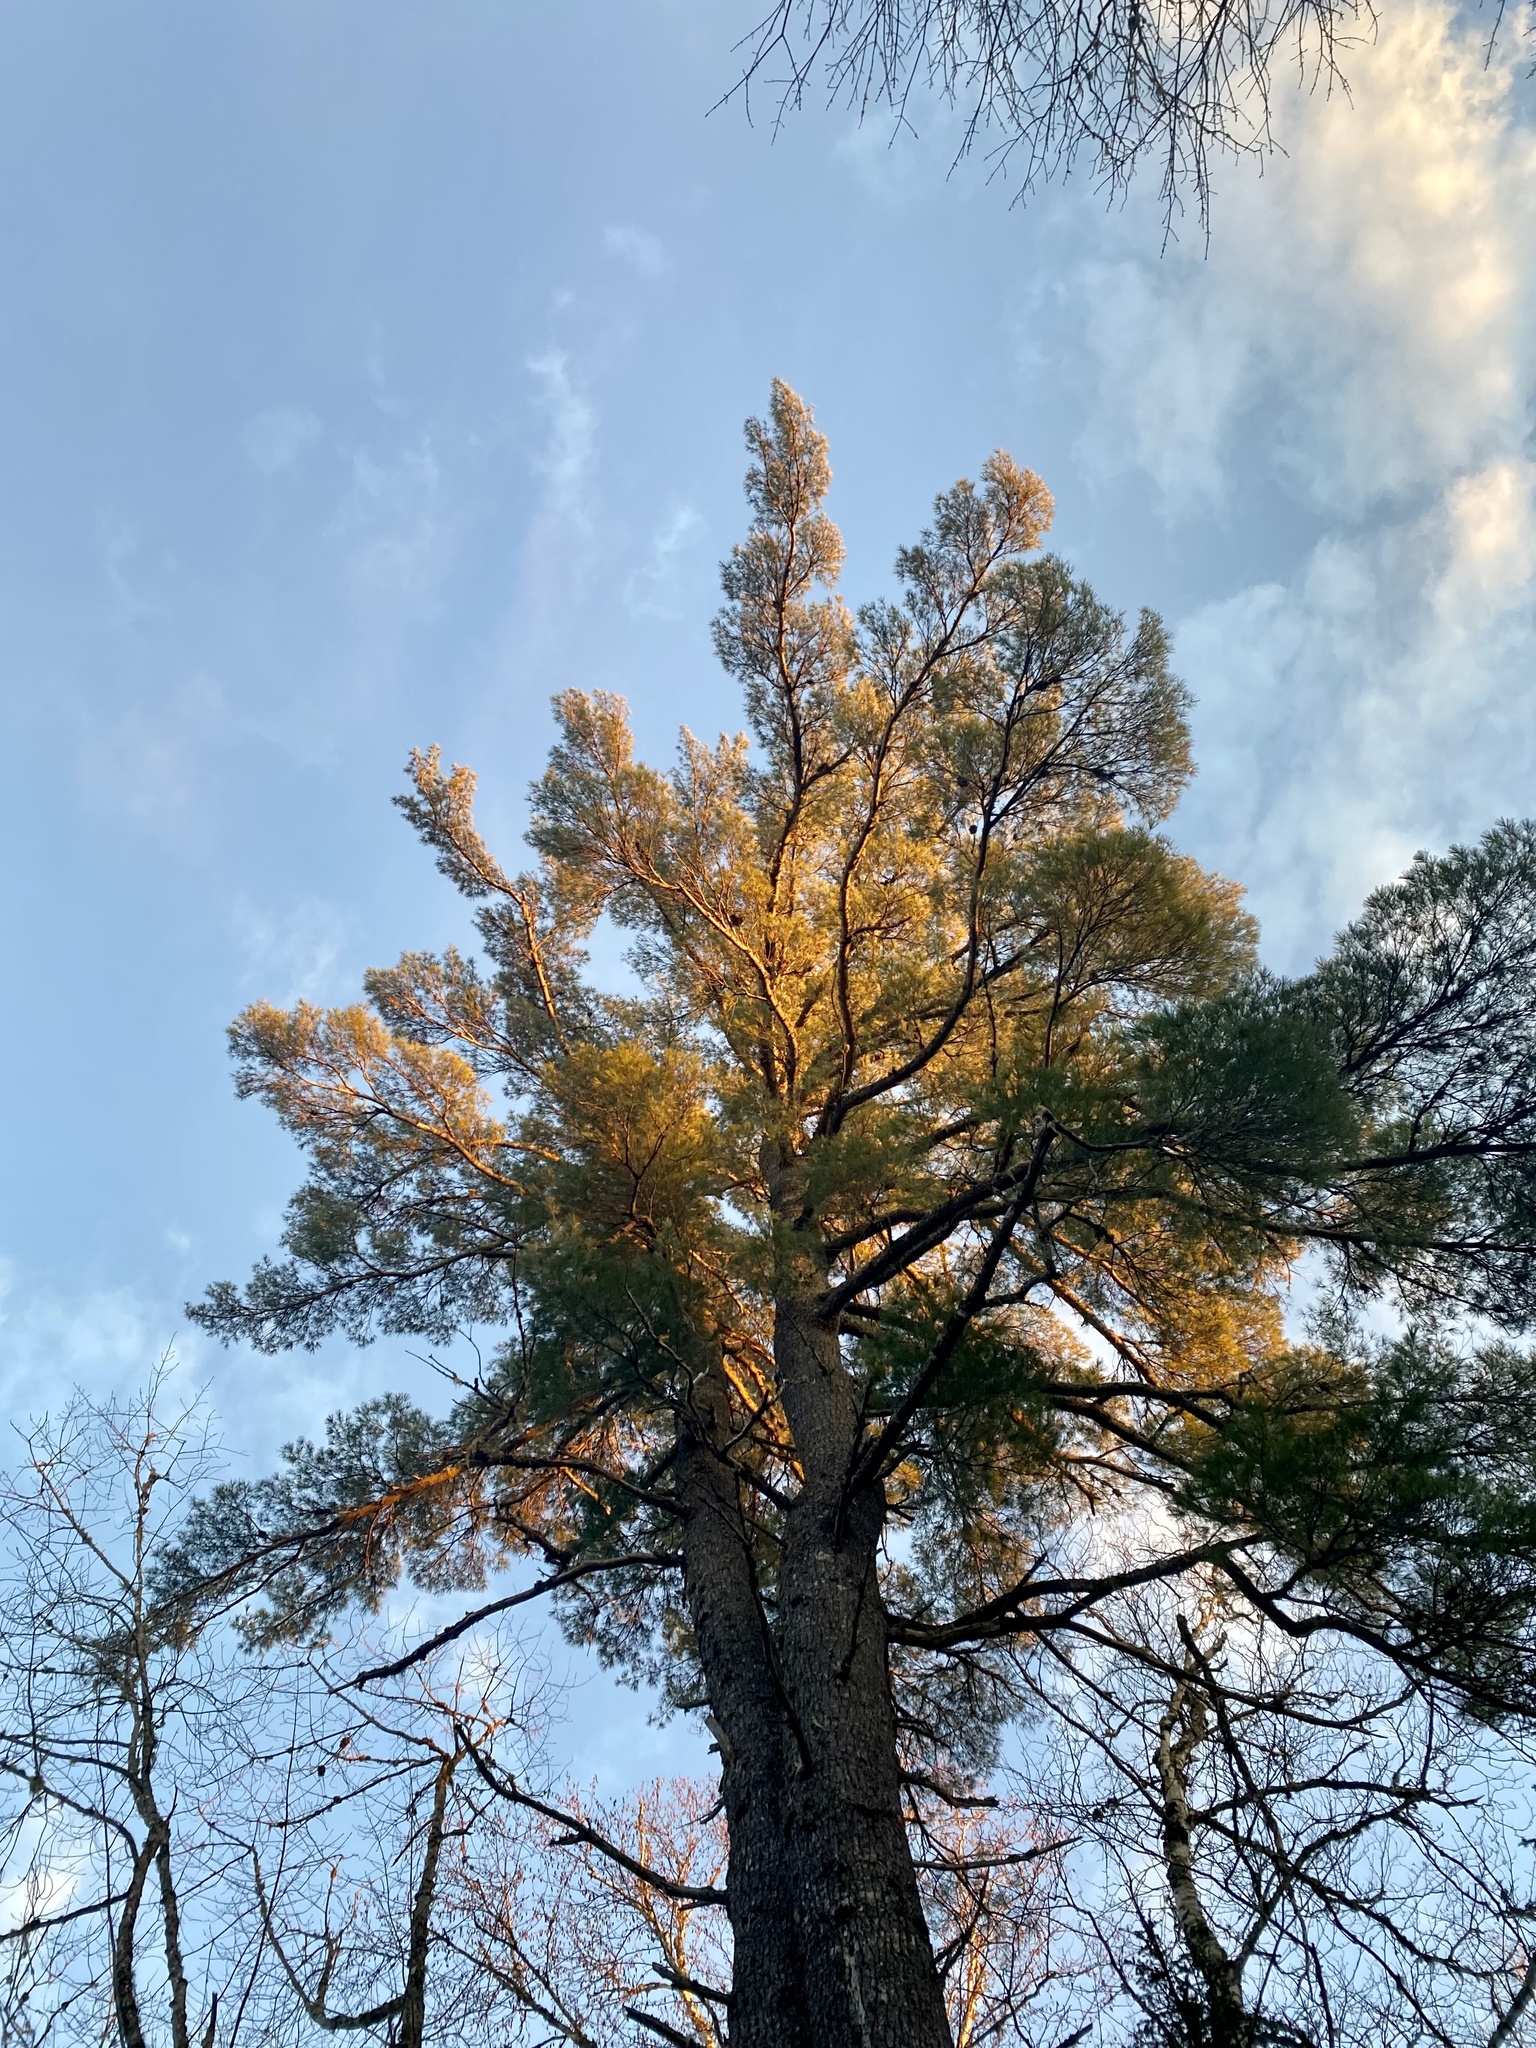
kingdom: Plantae
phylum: Tracheophyta
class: Pinopsida
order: Pinales
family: Pinaceae
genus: Pinus
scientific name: Pinus strobus
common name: Weymouth pine
